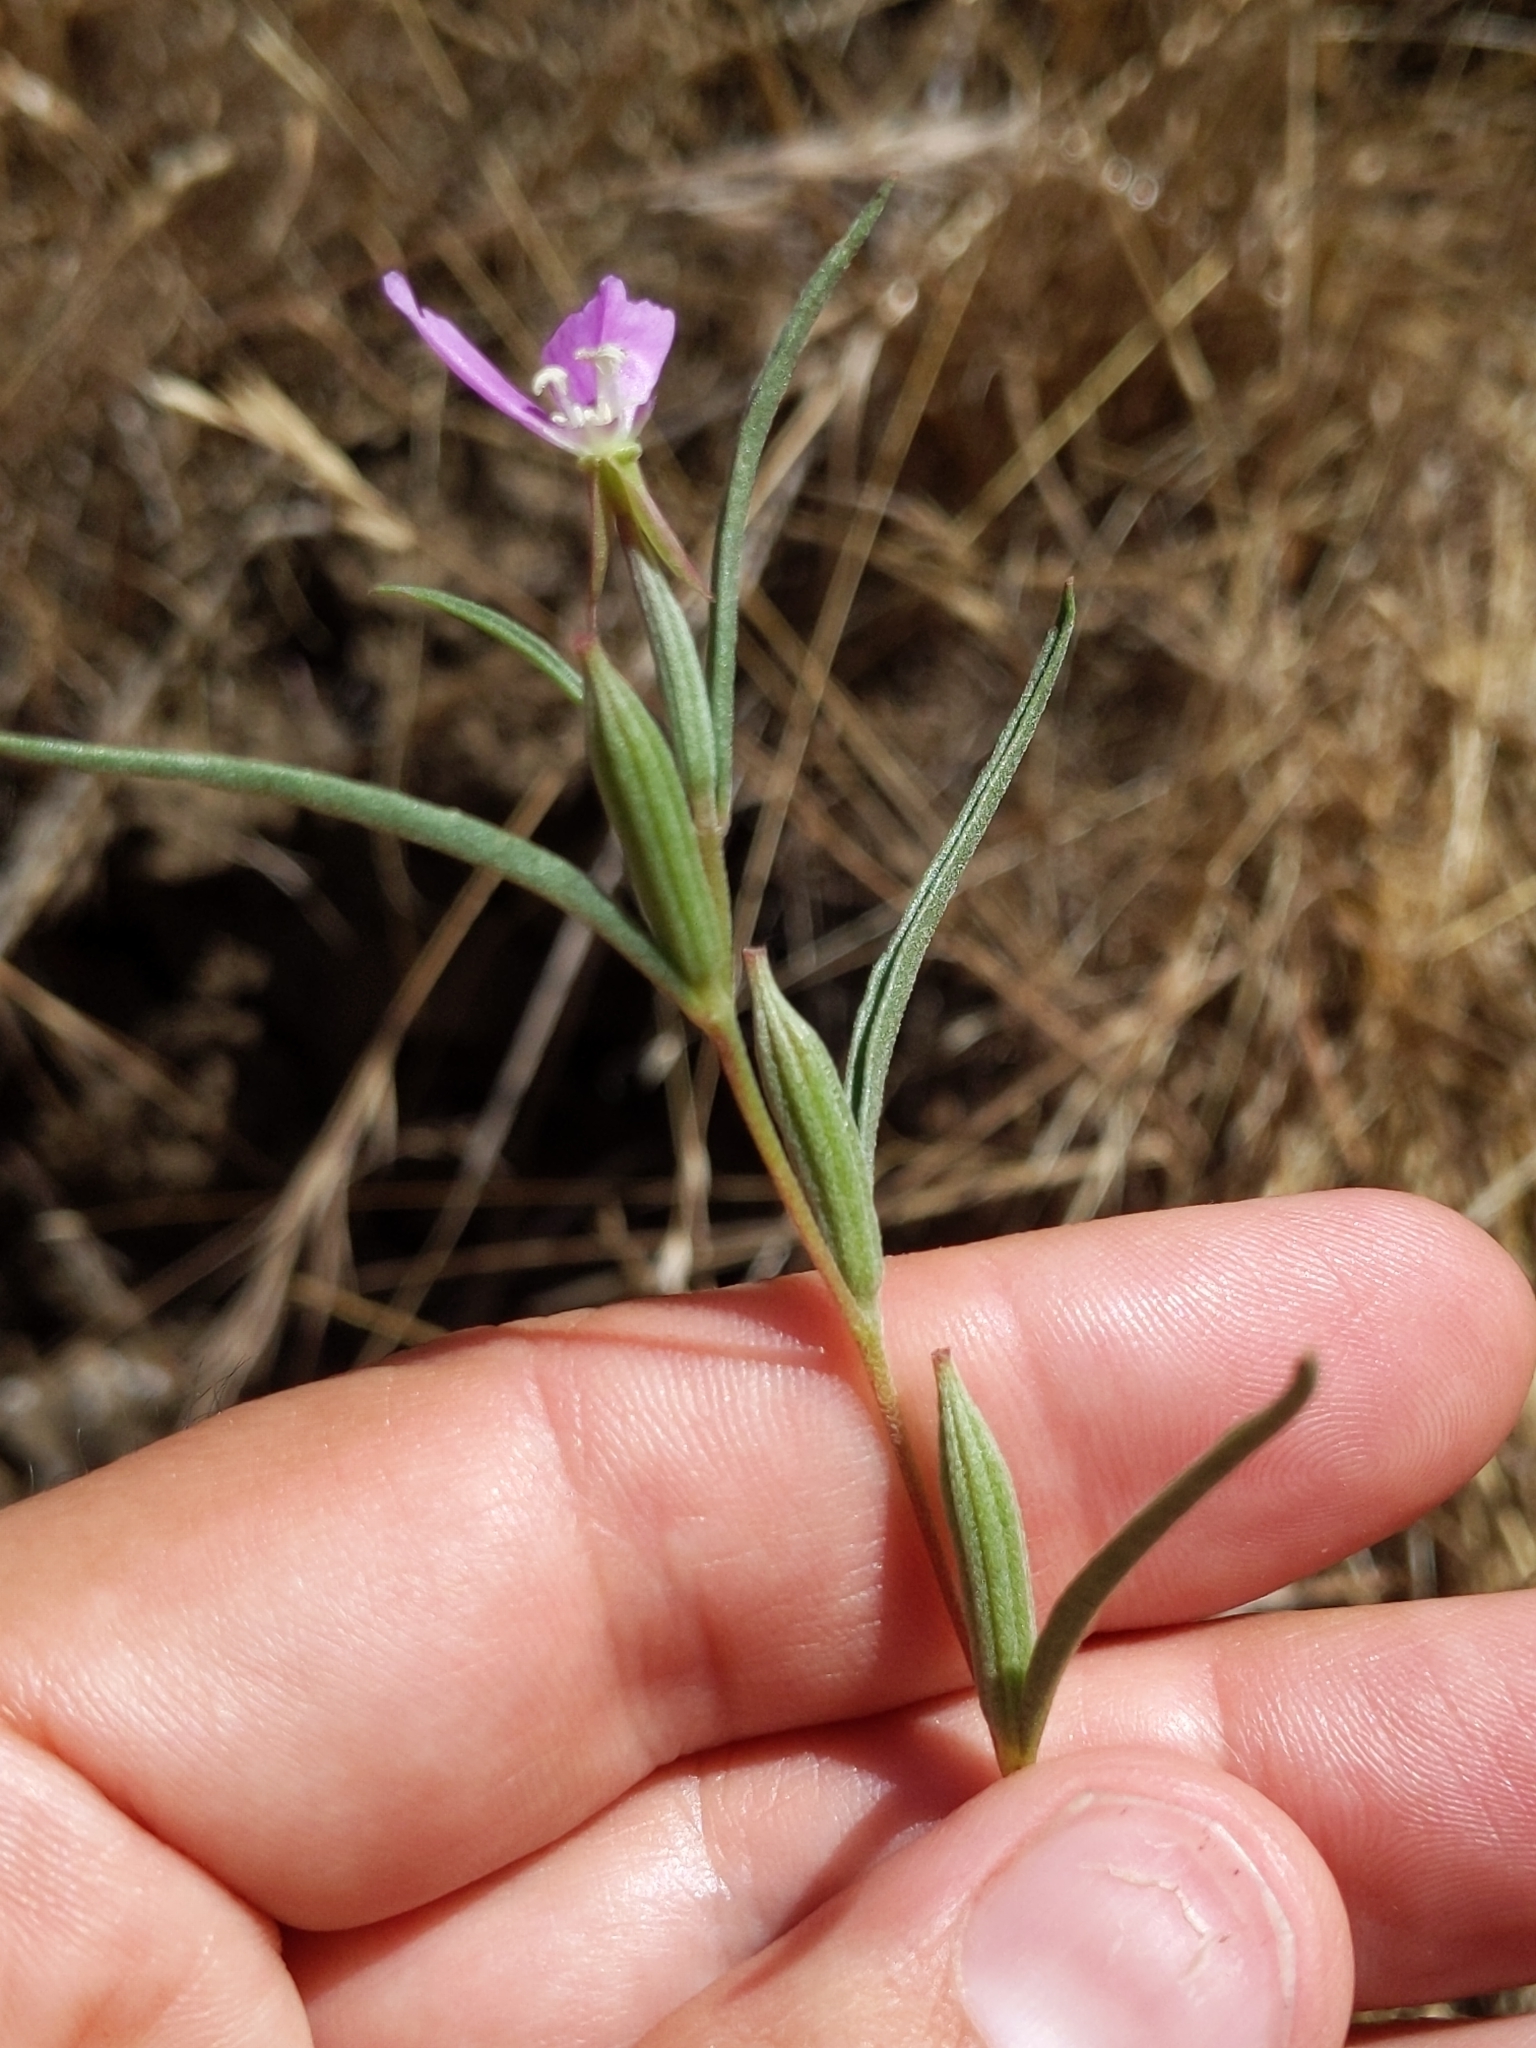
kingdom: Plantae
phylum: Tracheophyta
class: Magnoliopsida
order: Myrtales
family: Onagraceae
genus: Clarkia
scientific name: Clarkia purpurea
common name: Purple clarkia
